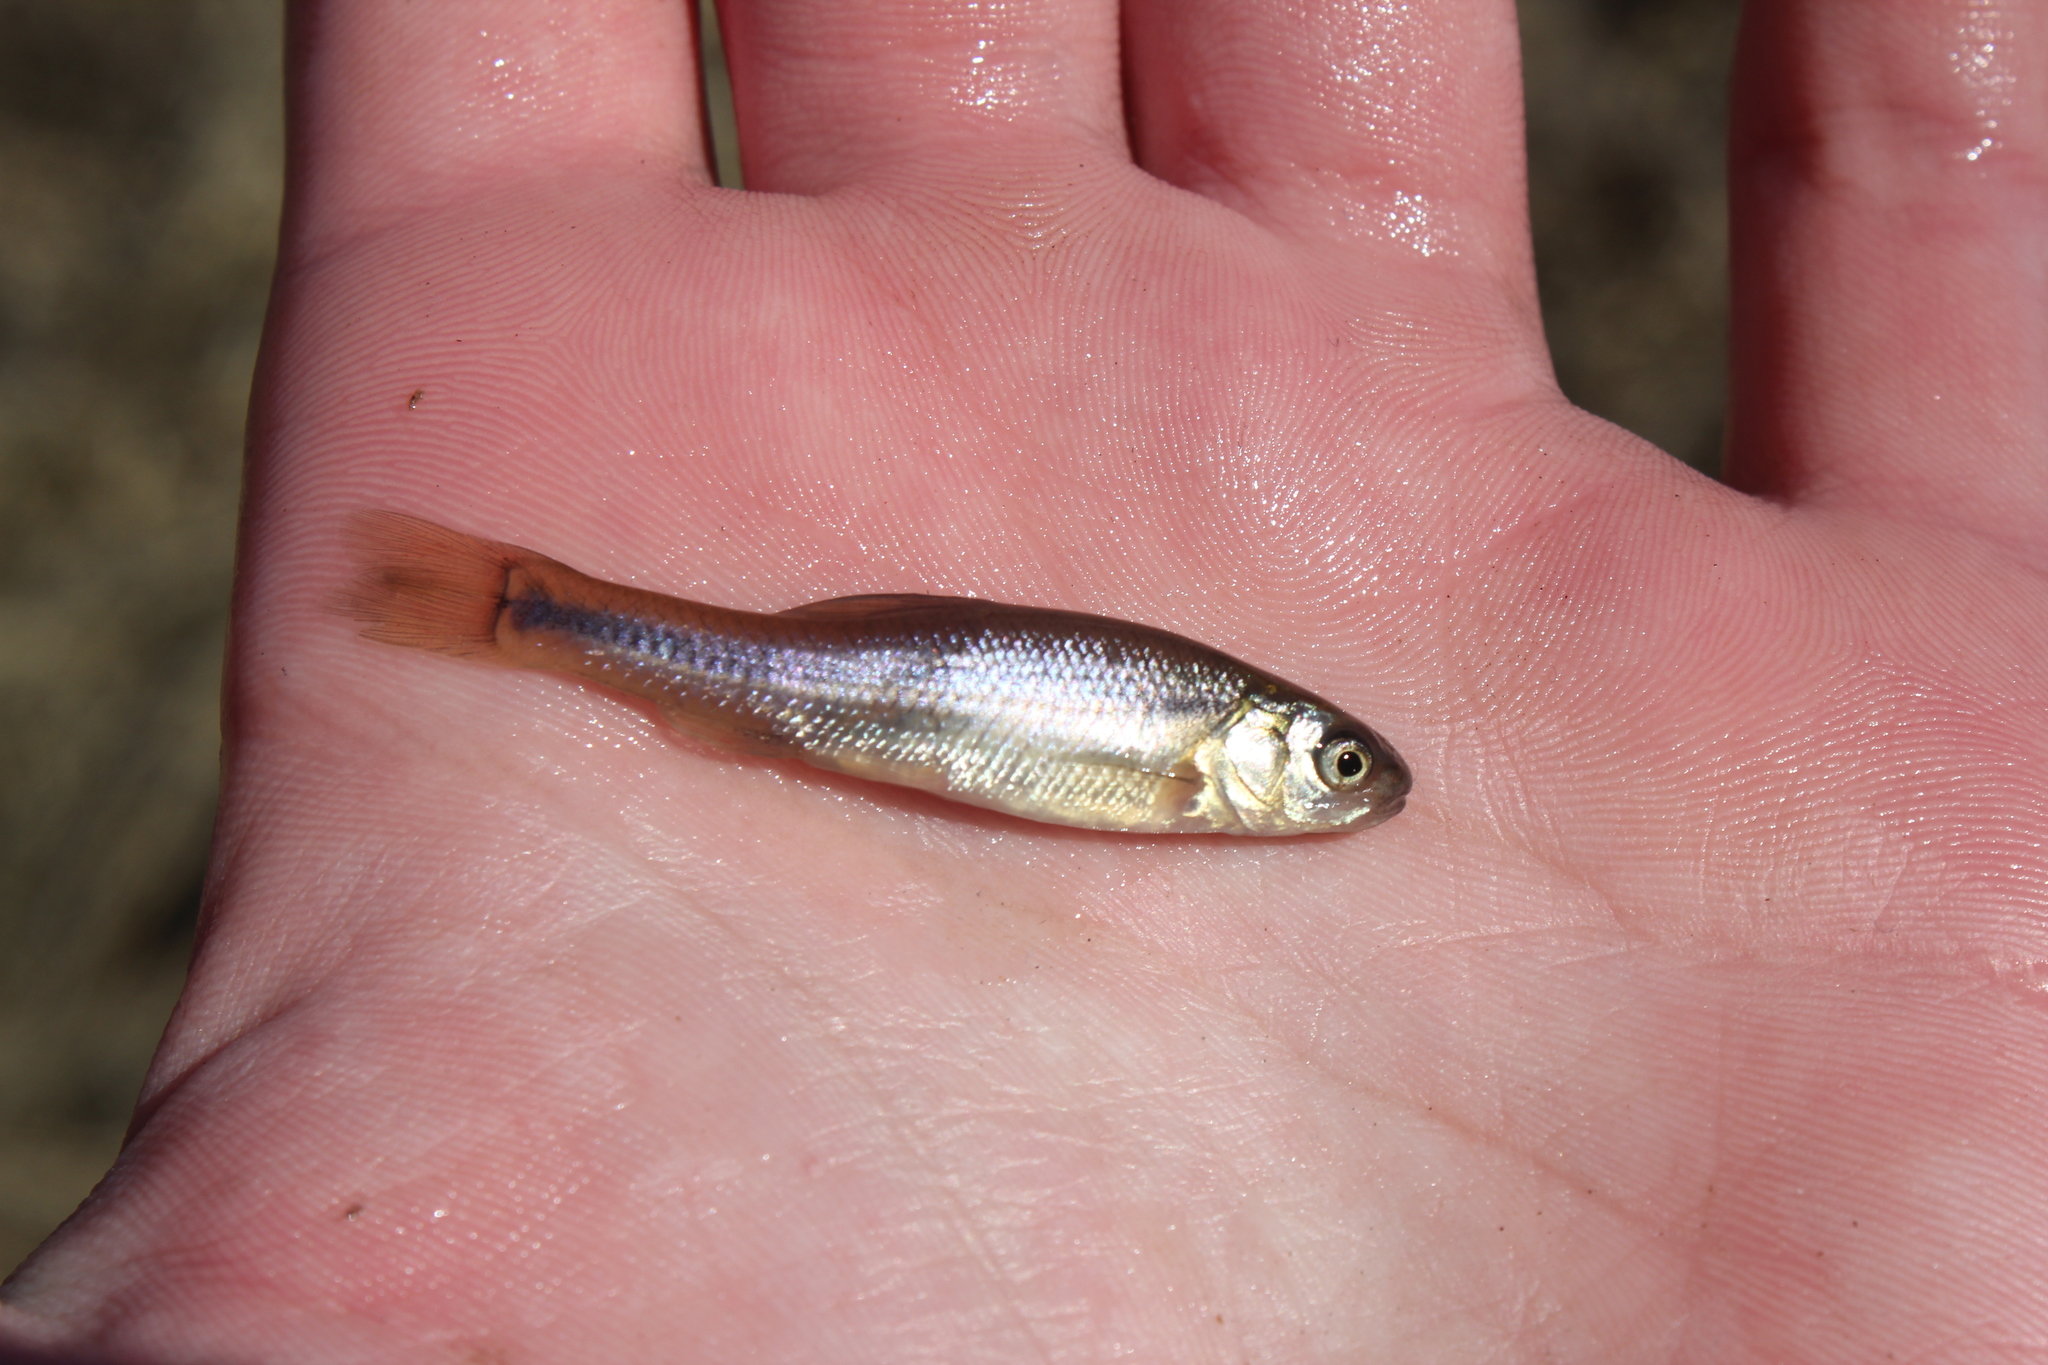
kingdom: Animalia
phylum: Chordata
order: Cypriniformes
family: Cyprinidae
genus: Pimephales
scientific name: Pimephales promelas
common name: Fathead minnow
